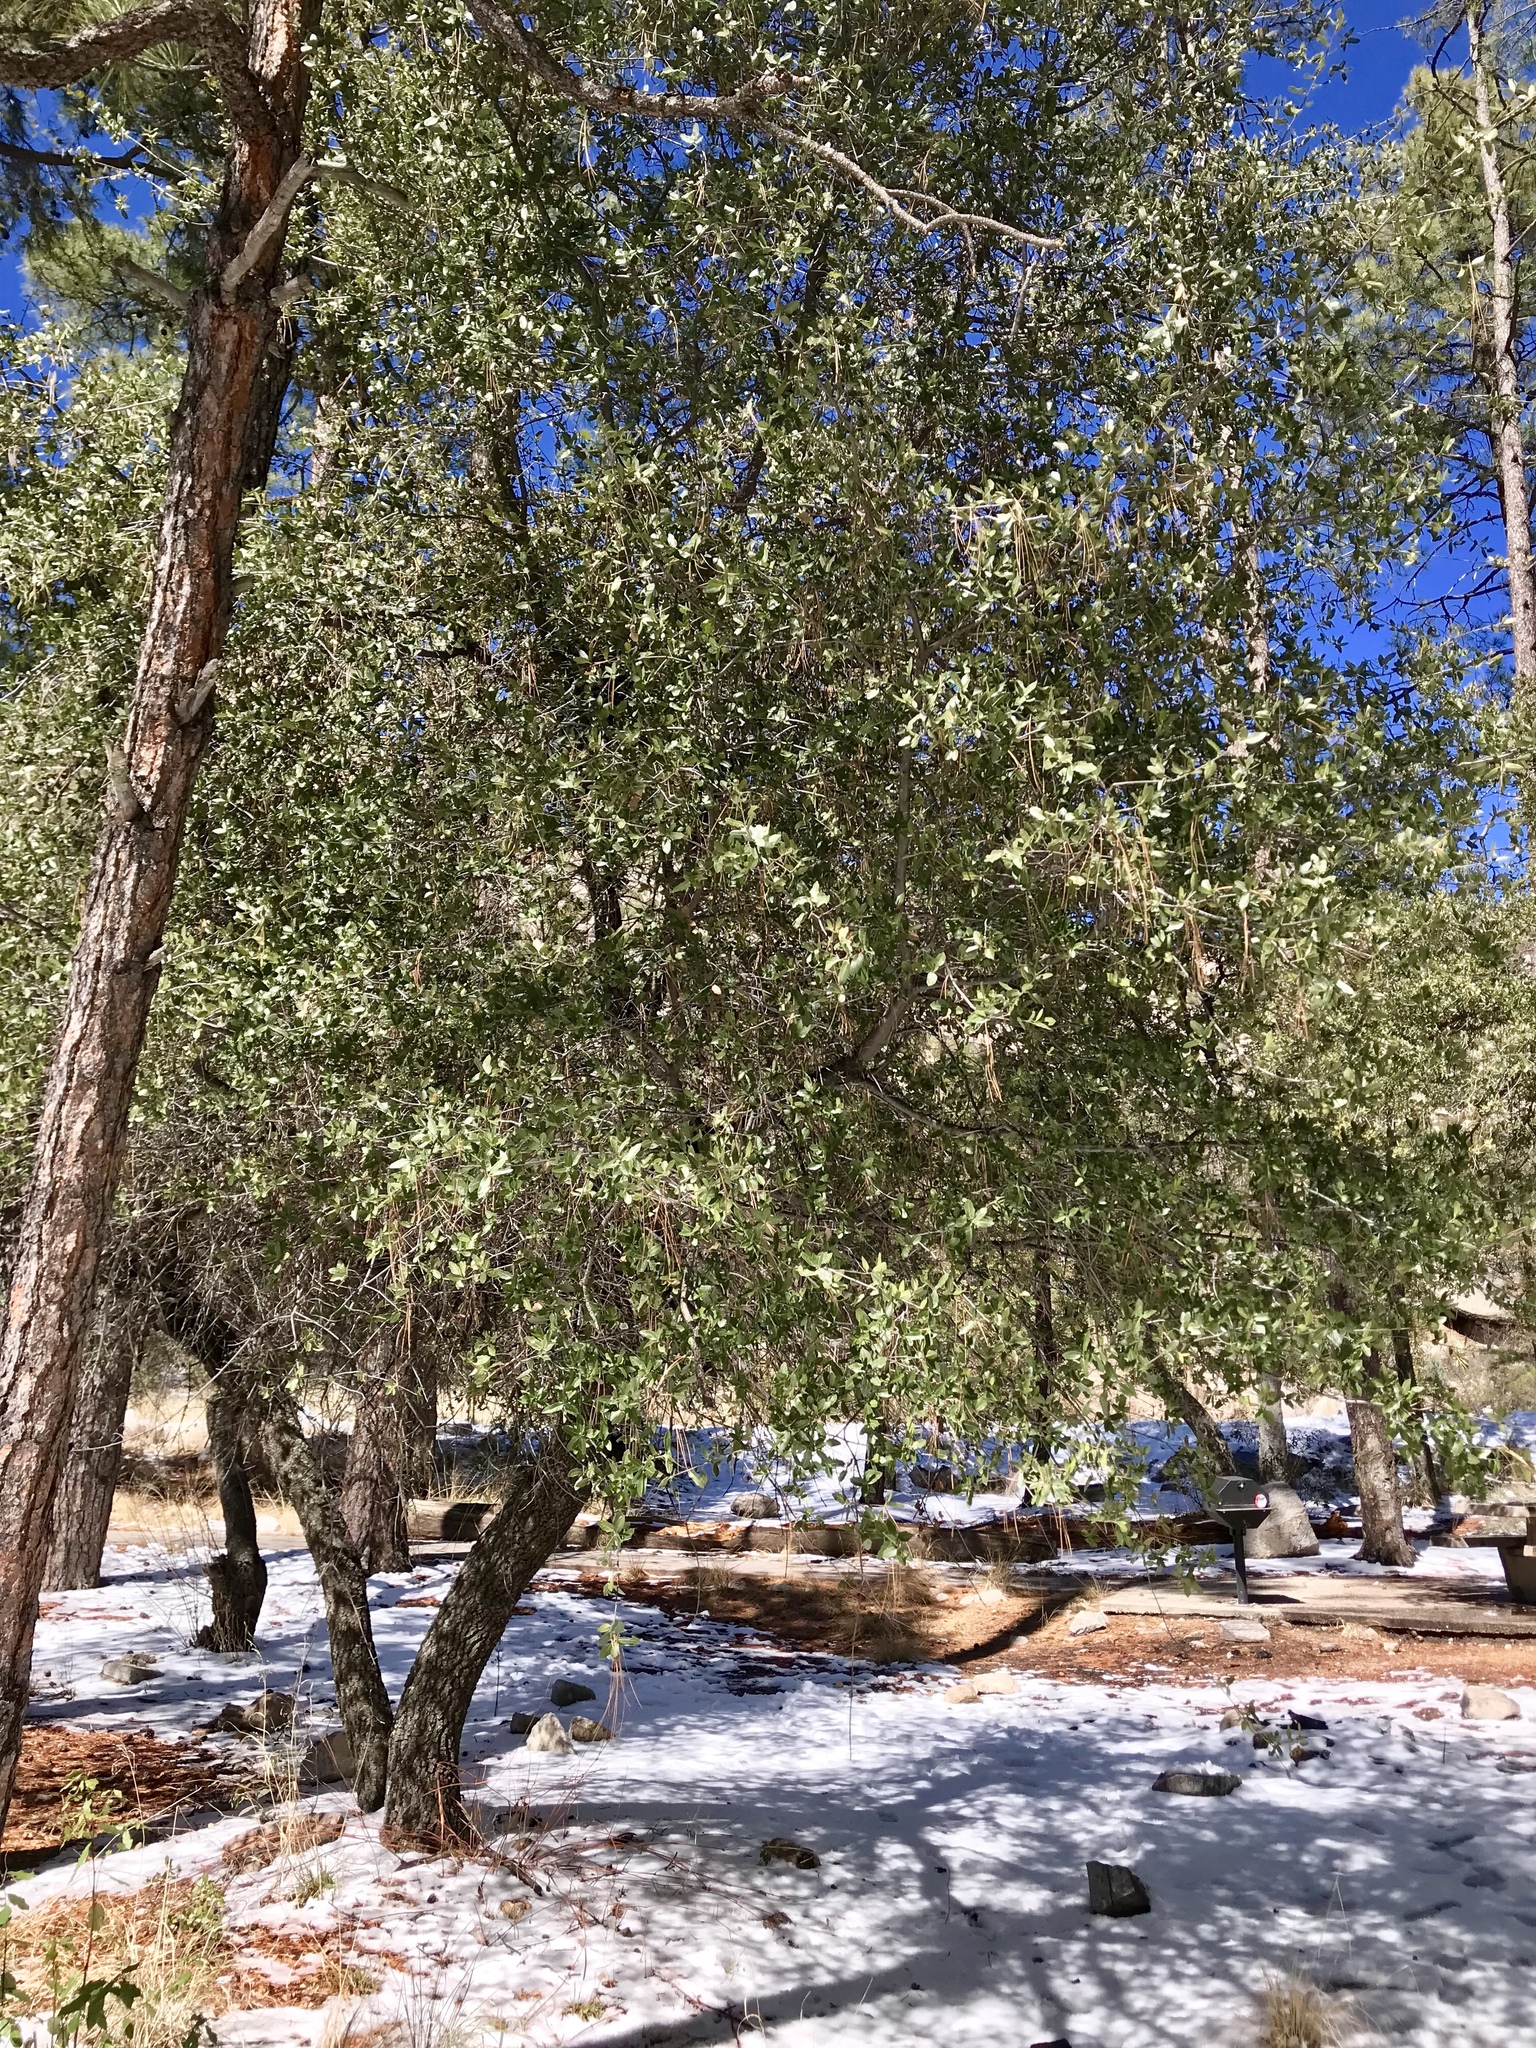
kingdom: Plantae
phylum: Tracheophyta
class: Magnoliopsida
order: Fagales
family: Fagaceae
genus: Quercus
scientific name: Quercus emoryi
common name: Emory oak
